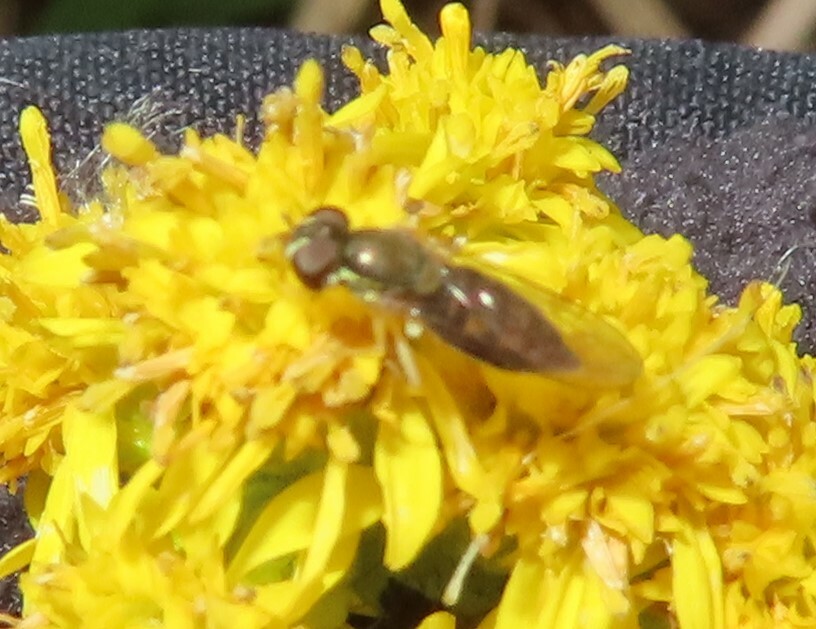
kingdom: Animalia
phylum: Arthropoda
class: Insecta
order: Diptera
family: Syrphidae
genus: Toxomerus
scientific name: Toxomerus marginatus
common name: Syrphid fly
